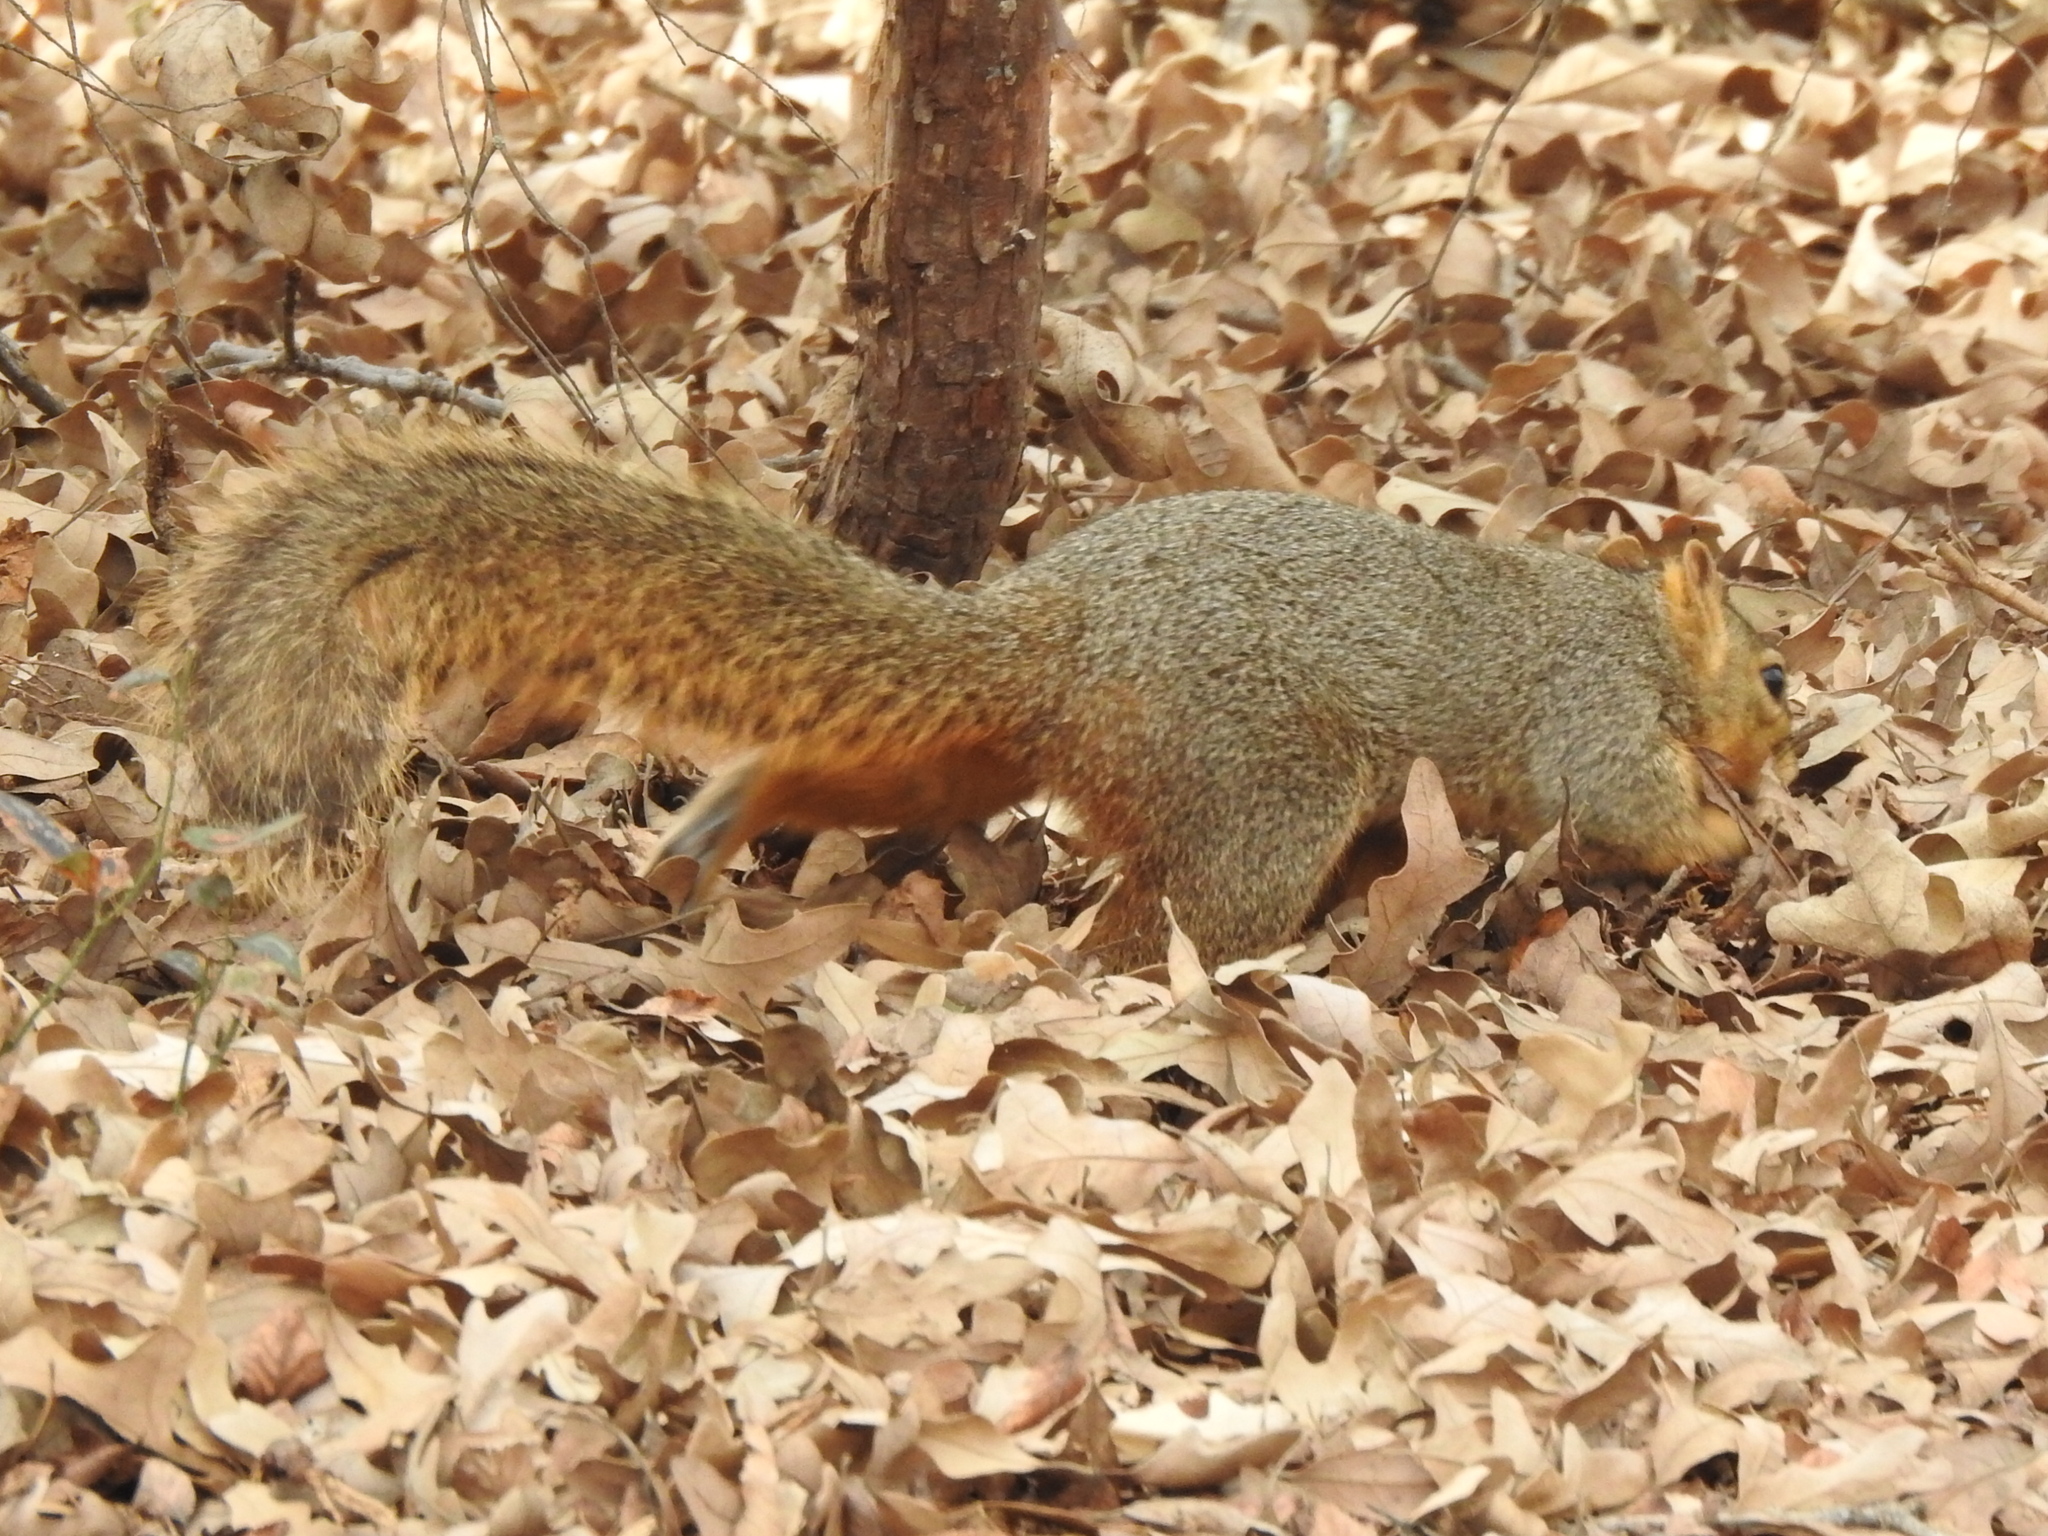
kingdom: Animalia
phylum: Chordata
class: Mammalia
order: Rodentia
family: Sciuridae
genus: Sciurus
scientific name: Sciurus niger
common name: Fox squirrel
